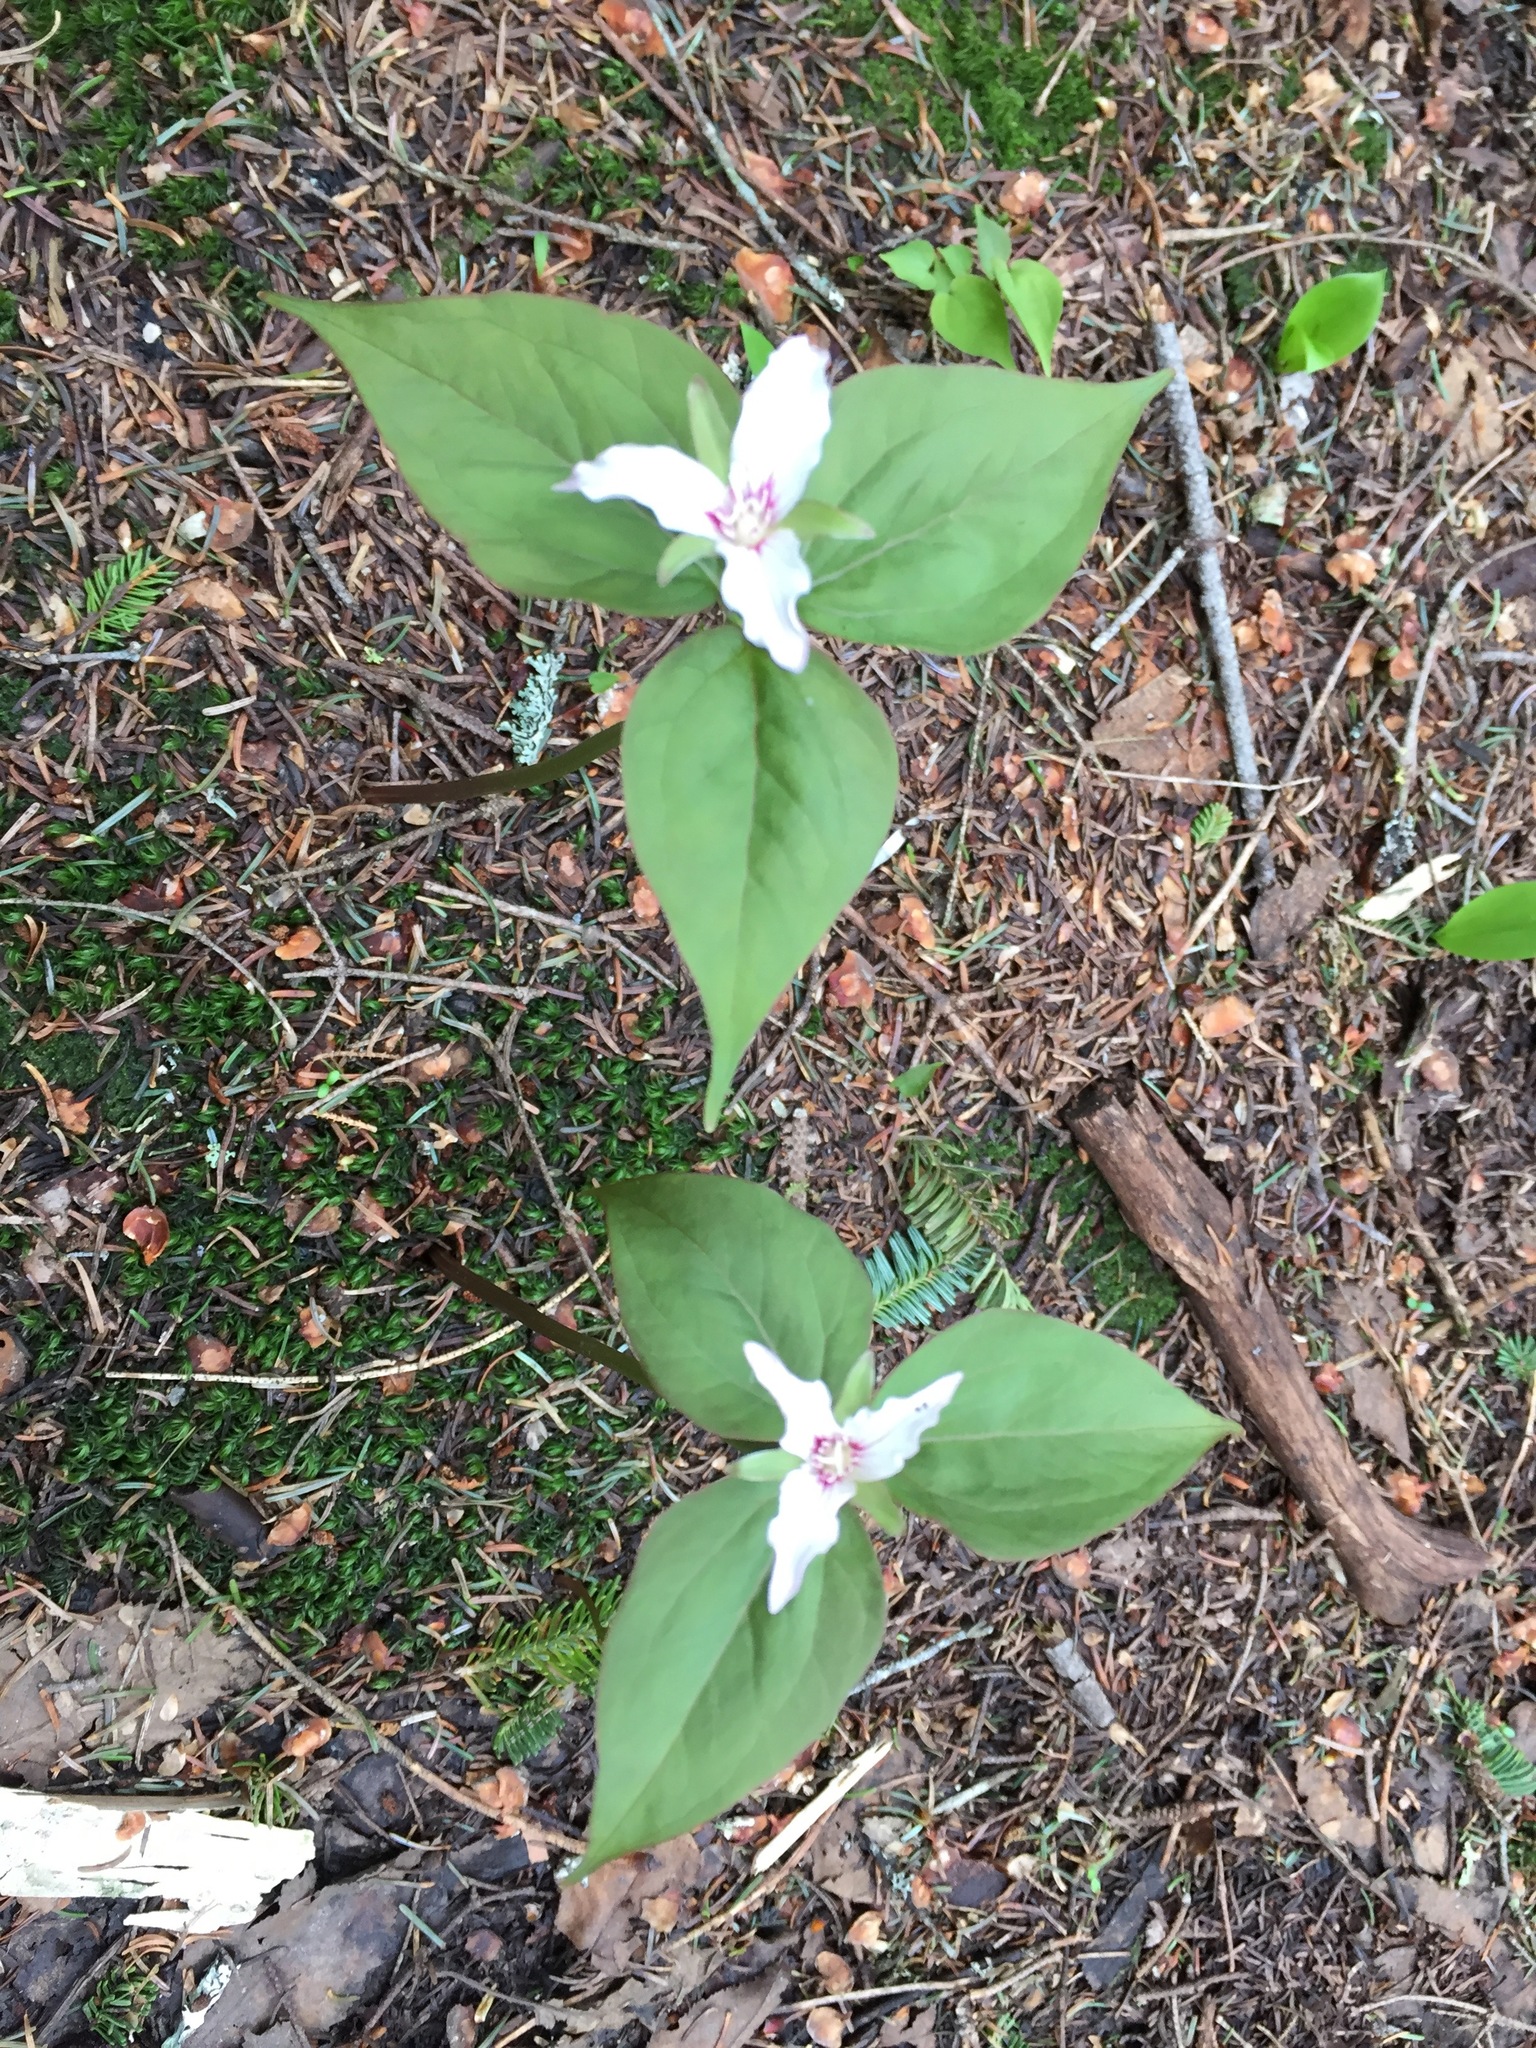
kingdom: Plantae
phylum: Tracheophyta
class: Liliopsida
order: Liliales
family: Melanthiaceae
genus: Trillium
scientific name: Trillium undulatum
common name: Paint trillium
